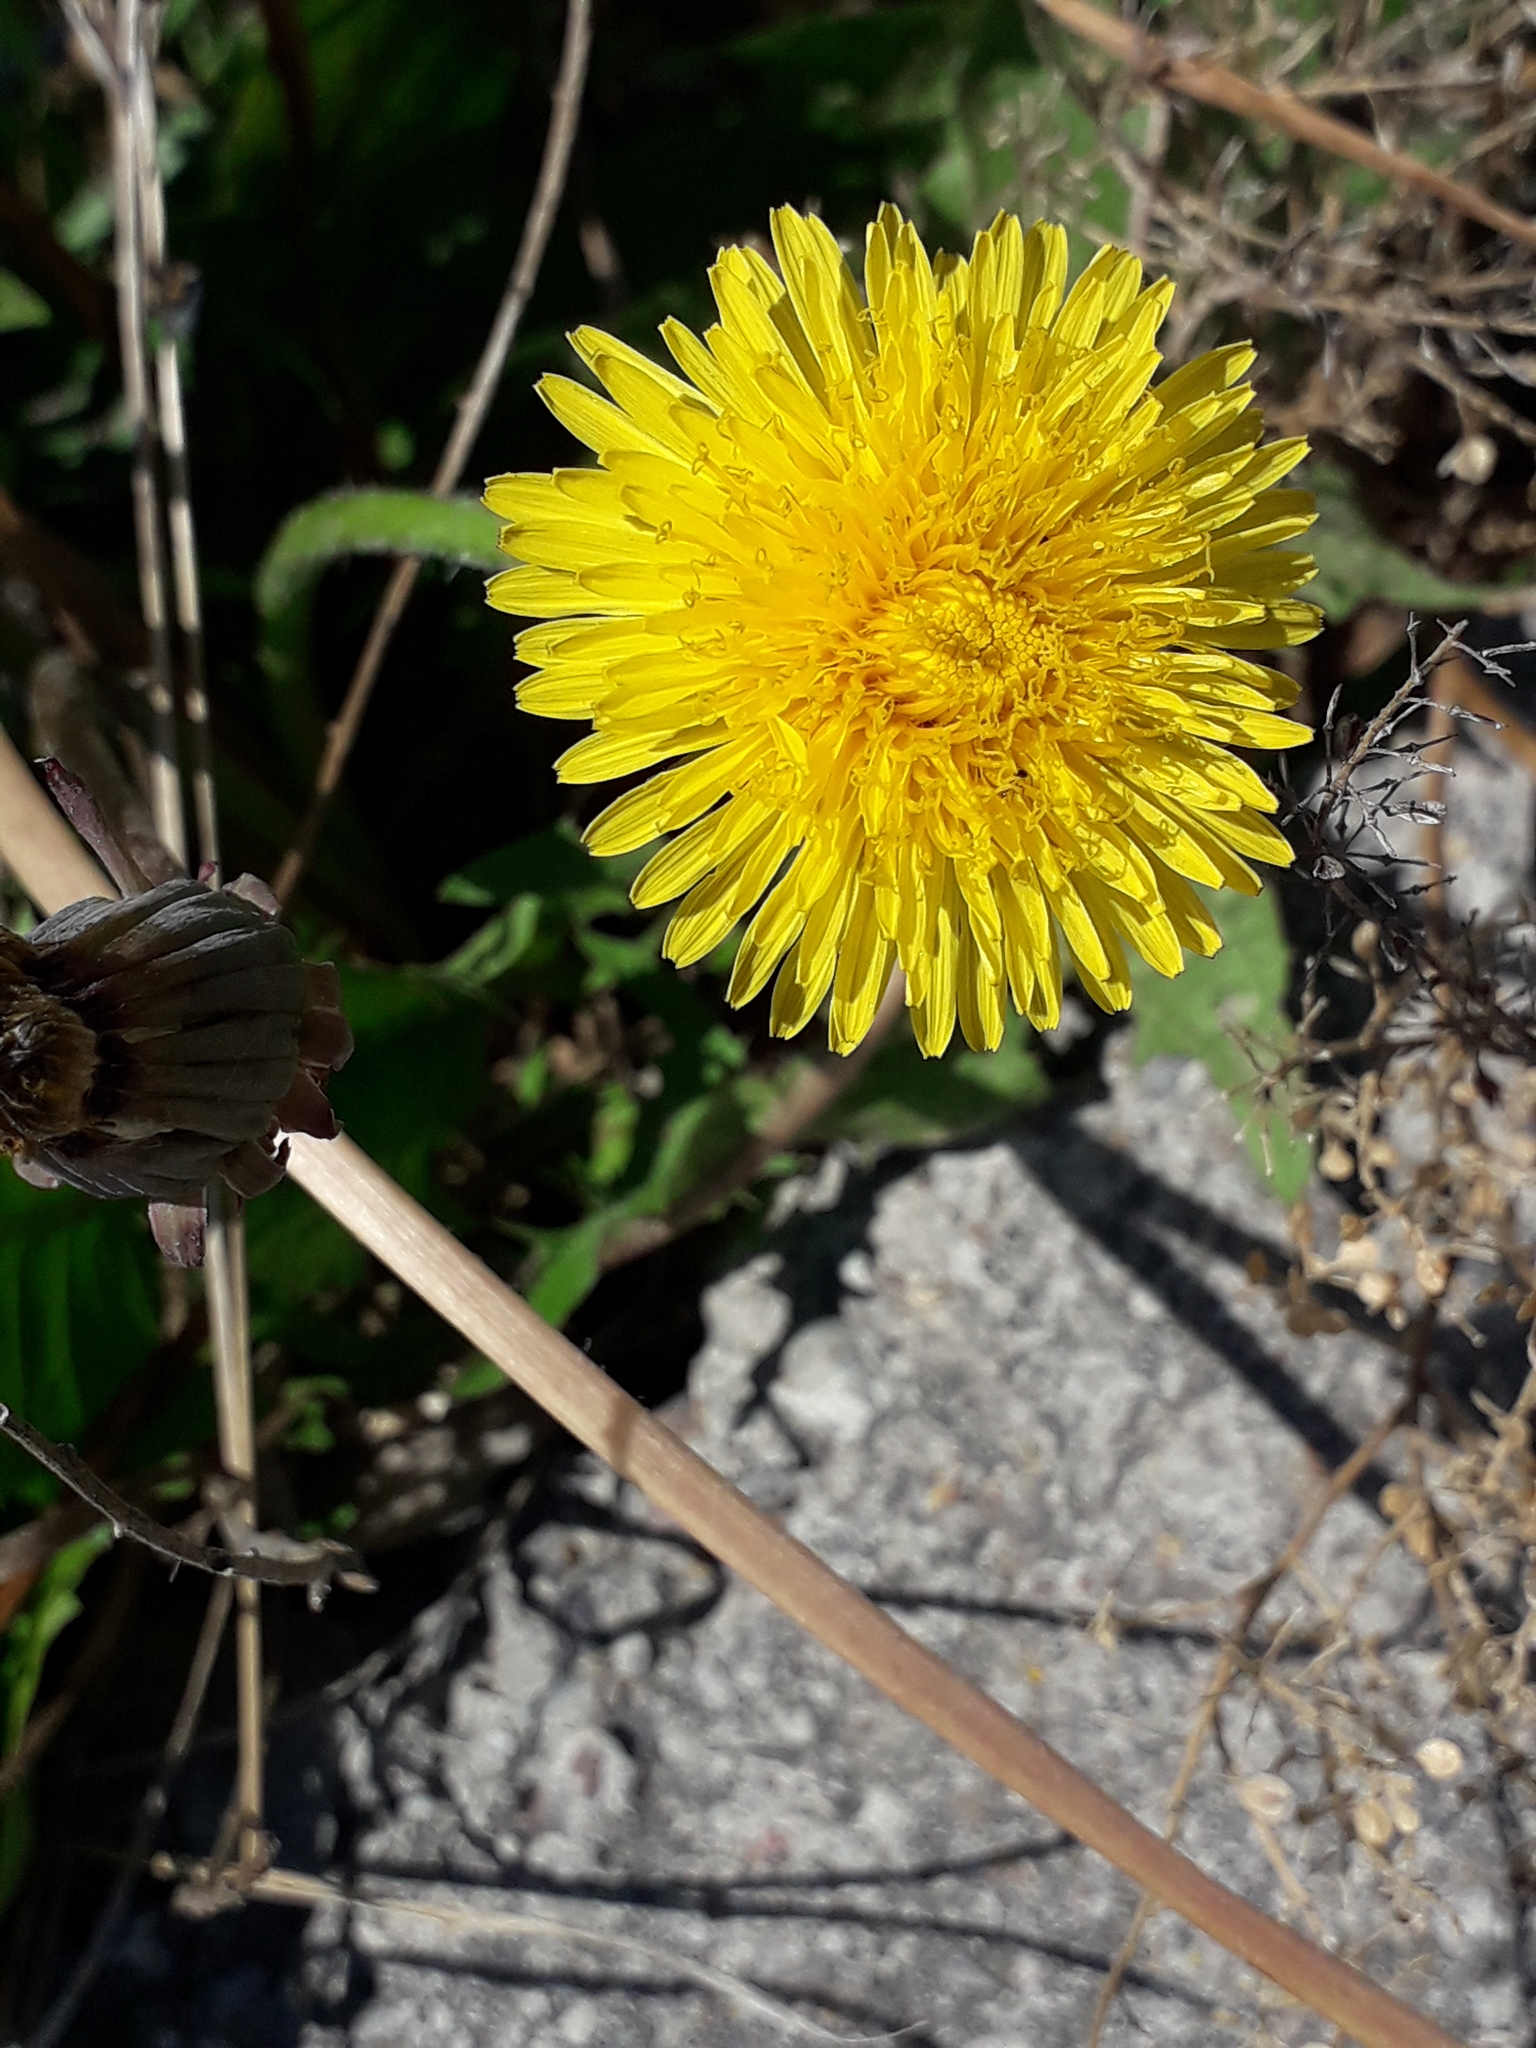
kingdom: Plantae
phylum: Tracheophyta
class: Magnoliopsida
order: Asterales
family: Asteraceae
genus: Taraxacum
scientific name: Taraxacum officinale
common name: Common dandelion
